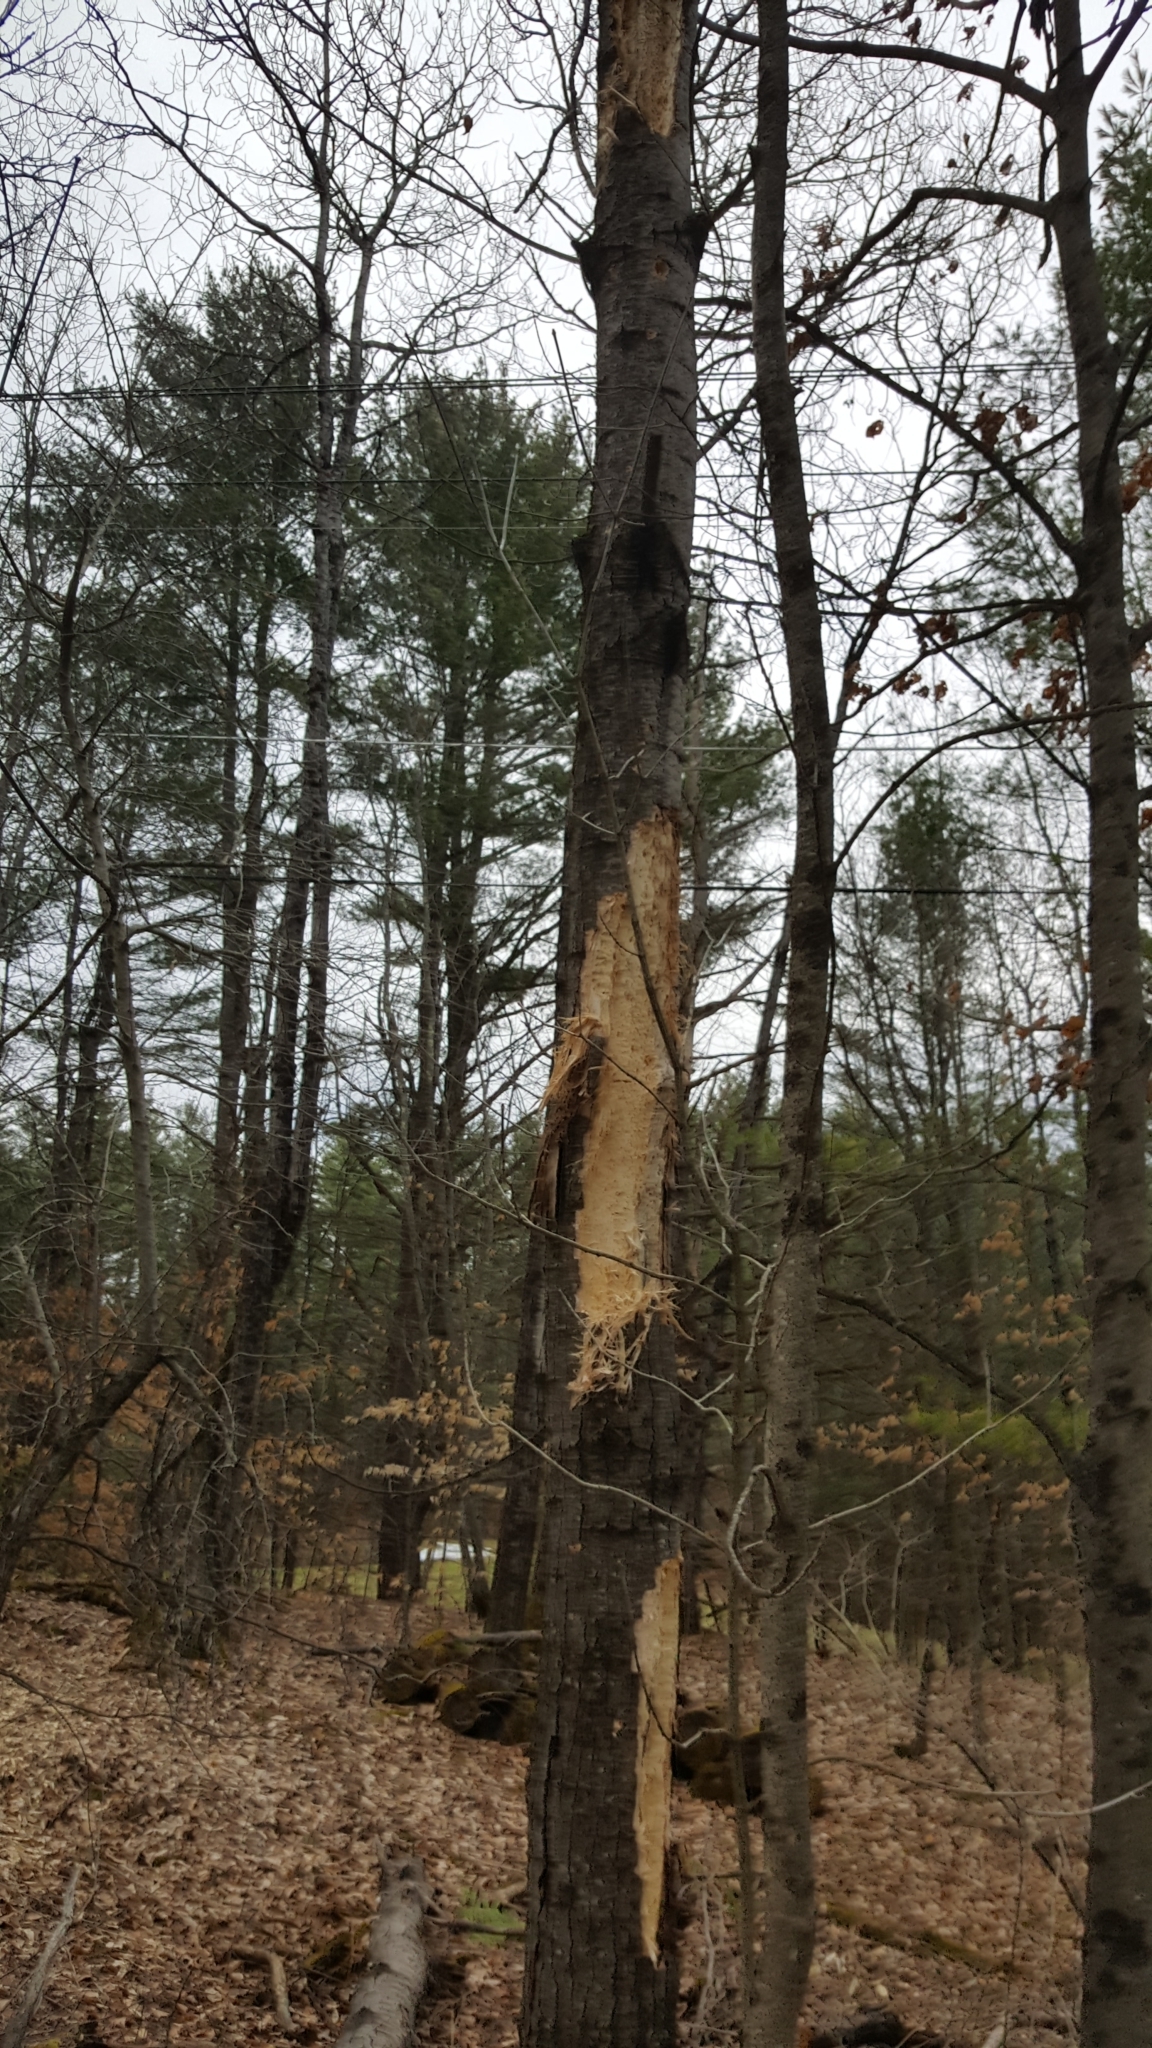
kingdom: Animalia
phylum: Chordata
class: Aves
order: Piciformes
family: Picidae
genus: Dryocopus
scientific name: Dryocopus pileatus
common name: Pileated woodpecker
